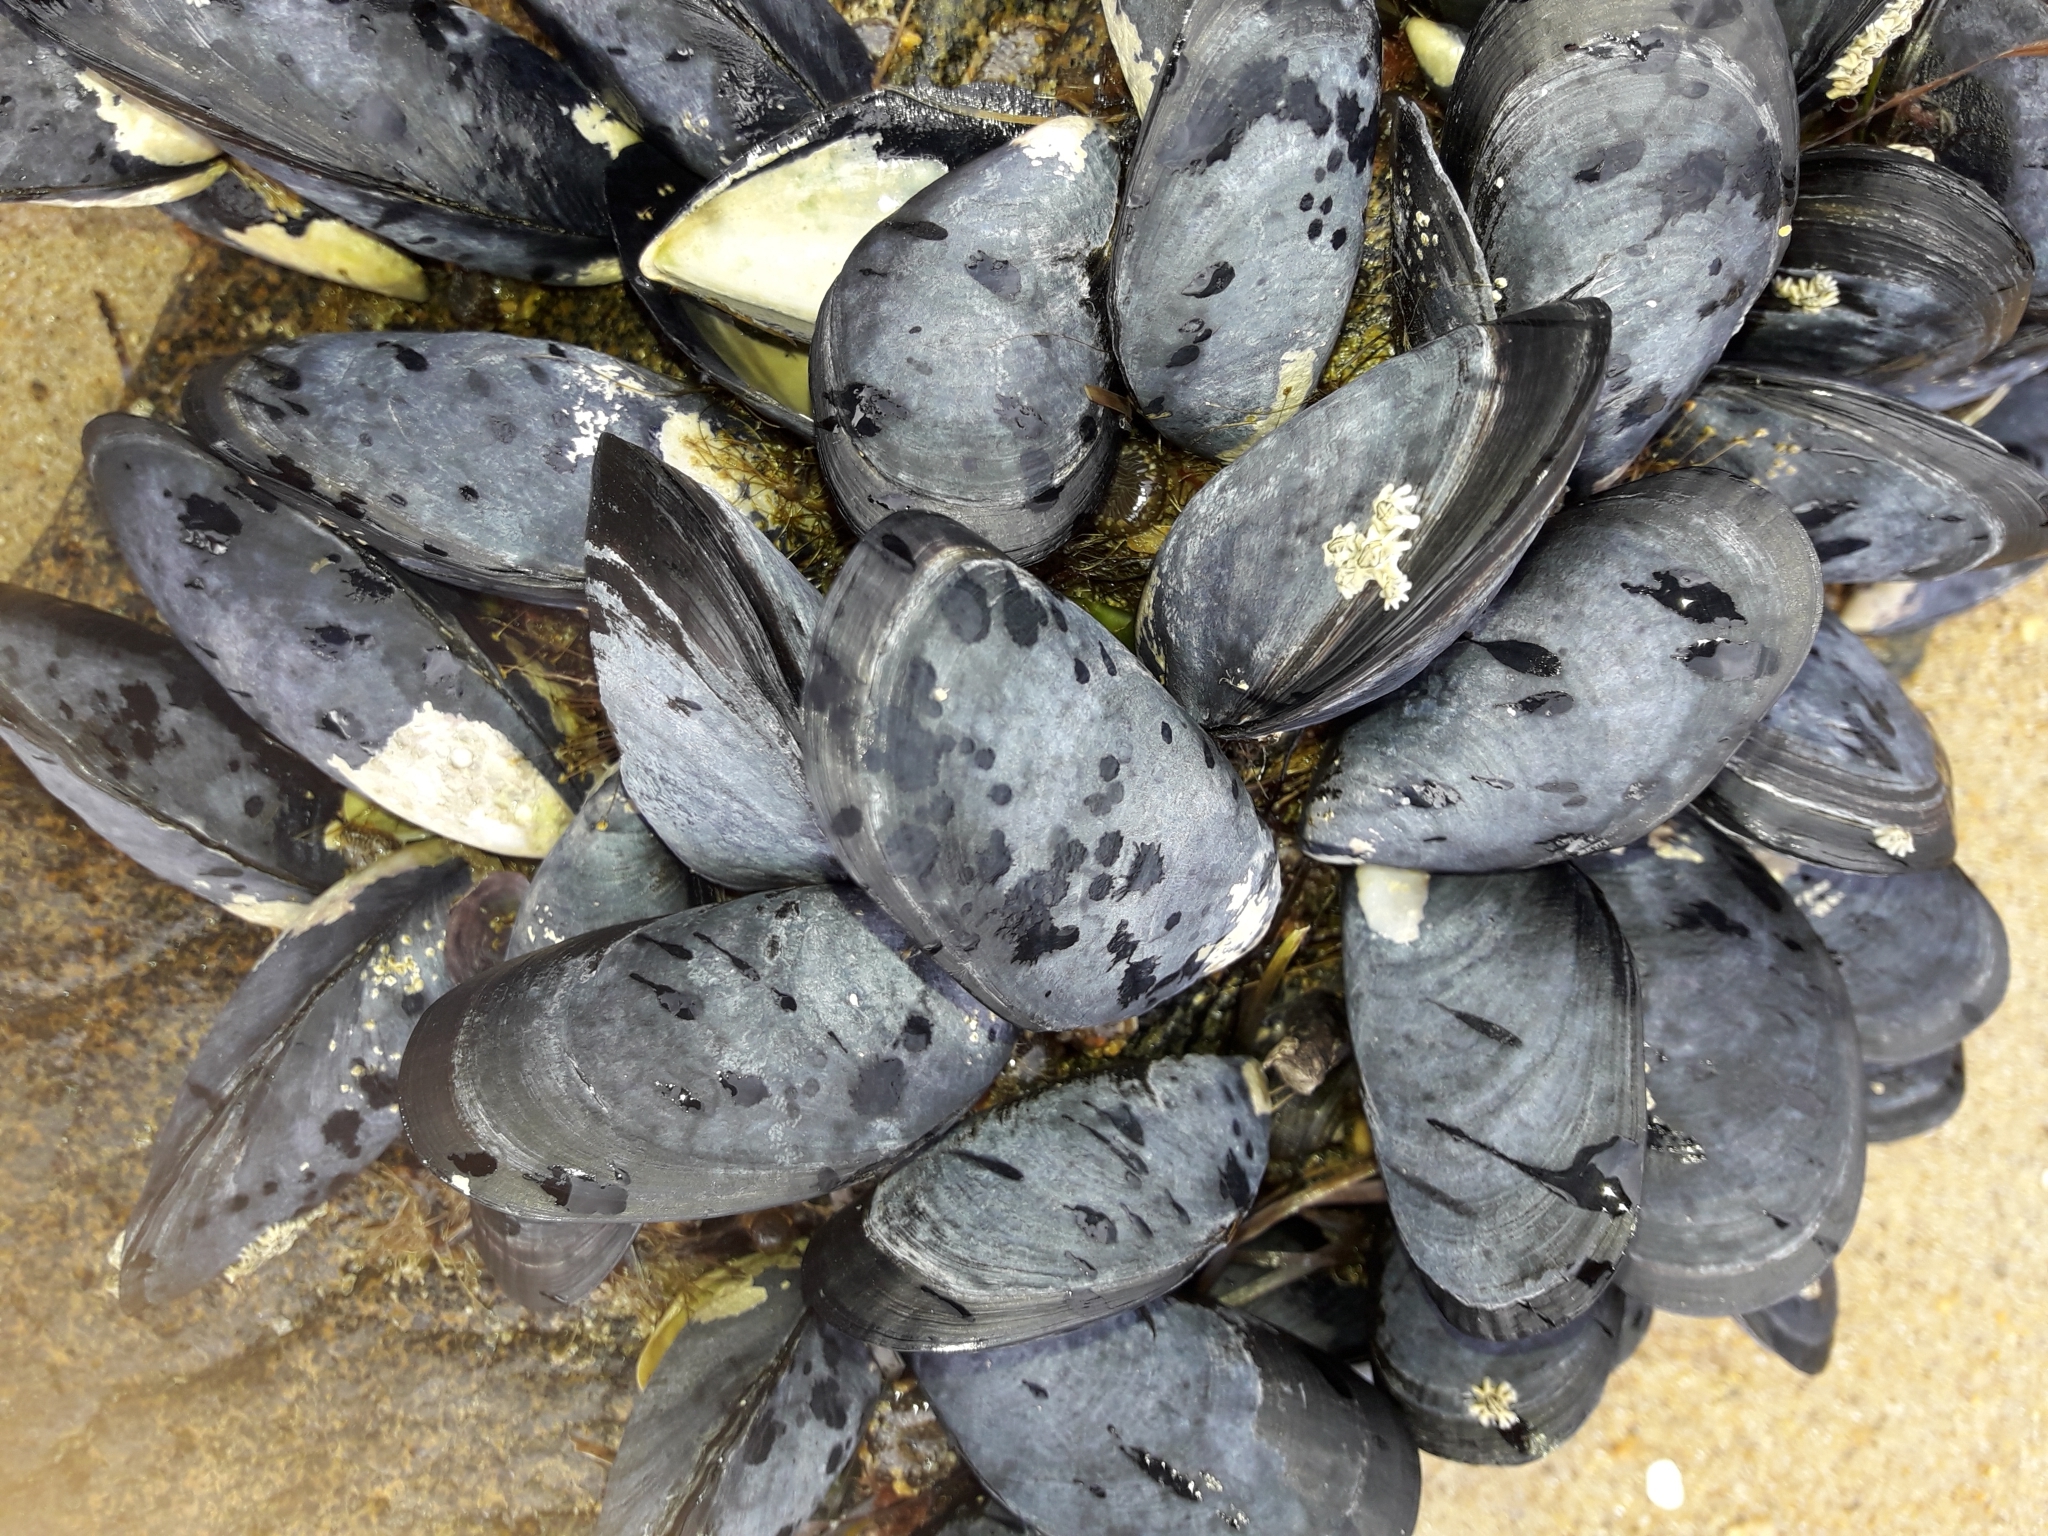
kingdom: Animalia
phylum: Mollusca
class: Bivalvia
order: Mytilida
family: Mytilidae
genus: Mytilus
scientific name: Mytilus planulatus
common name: Australian mussel
